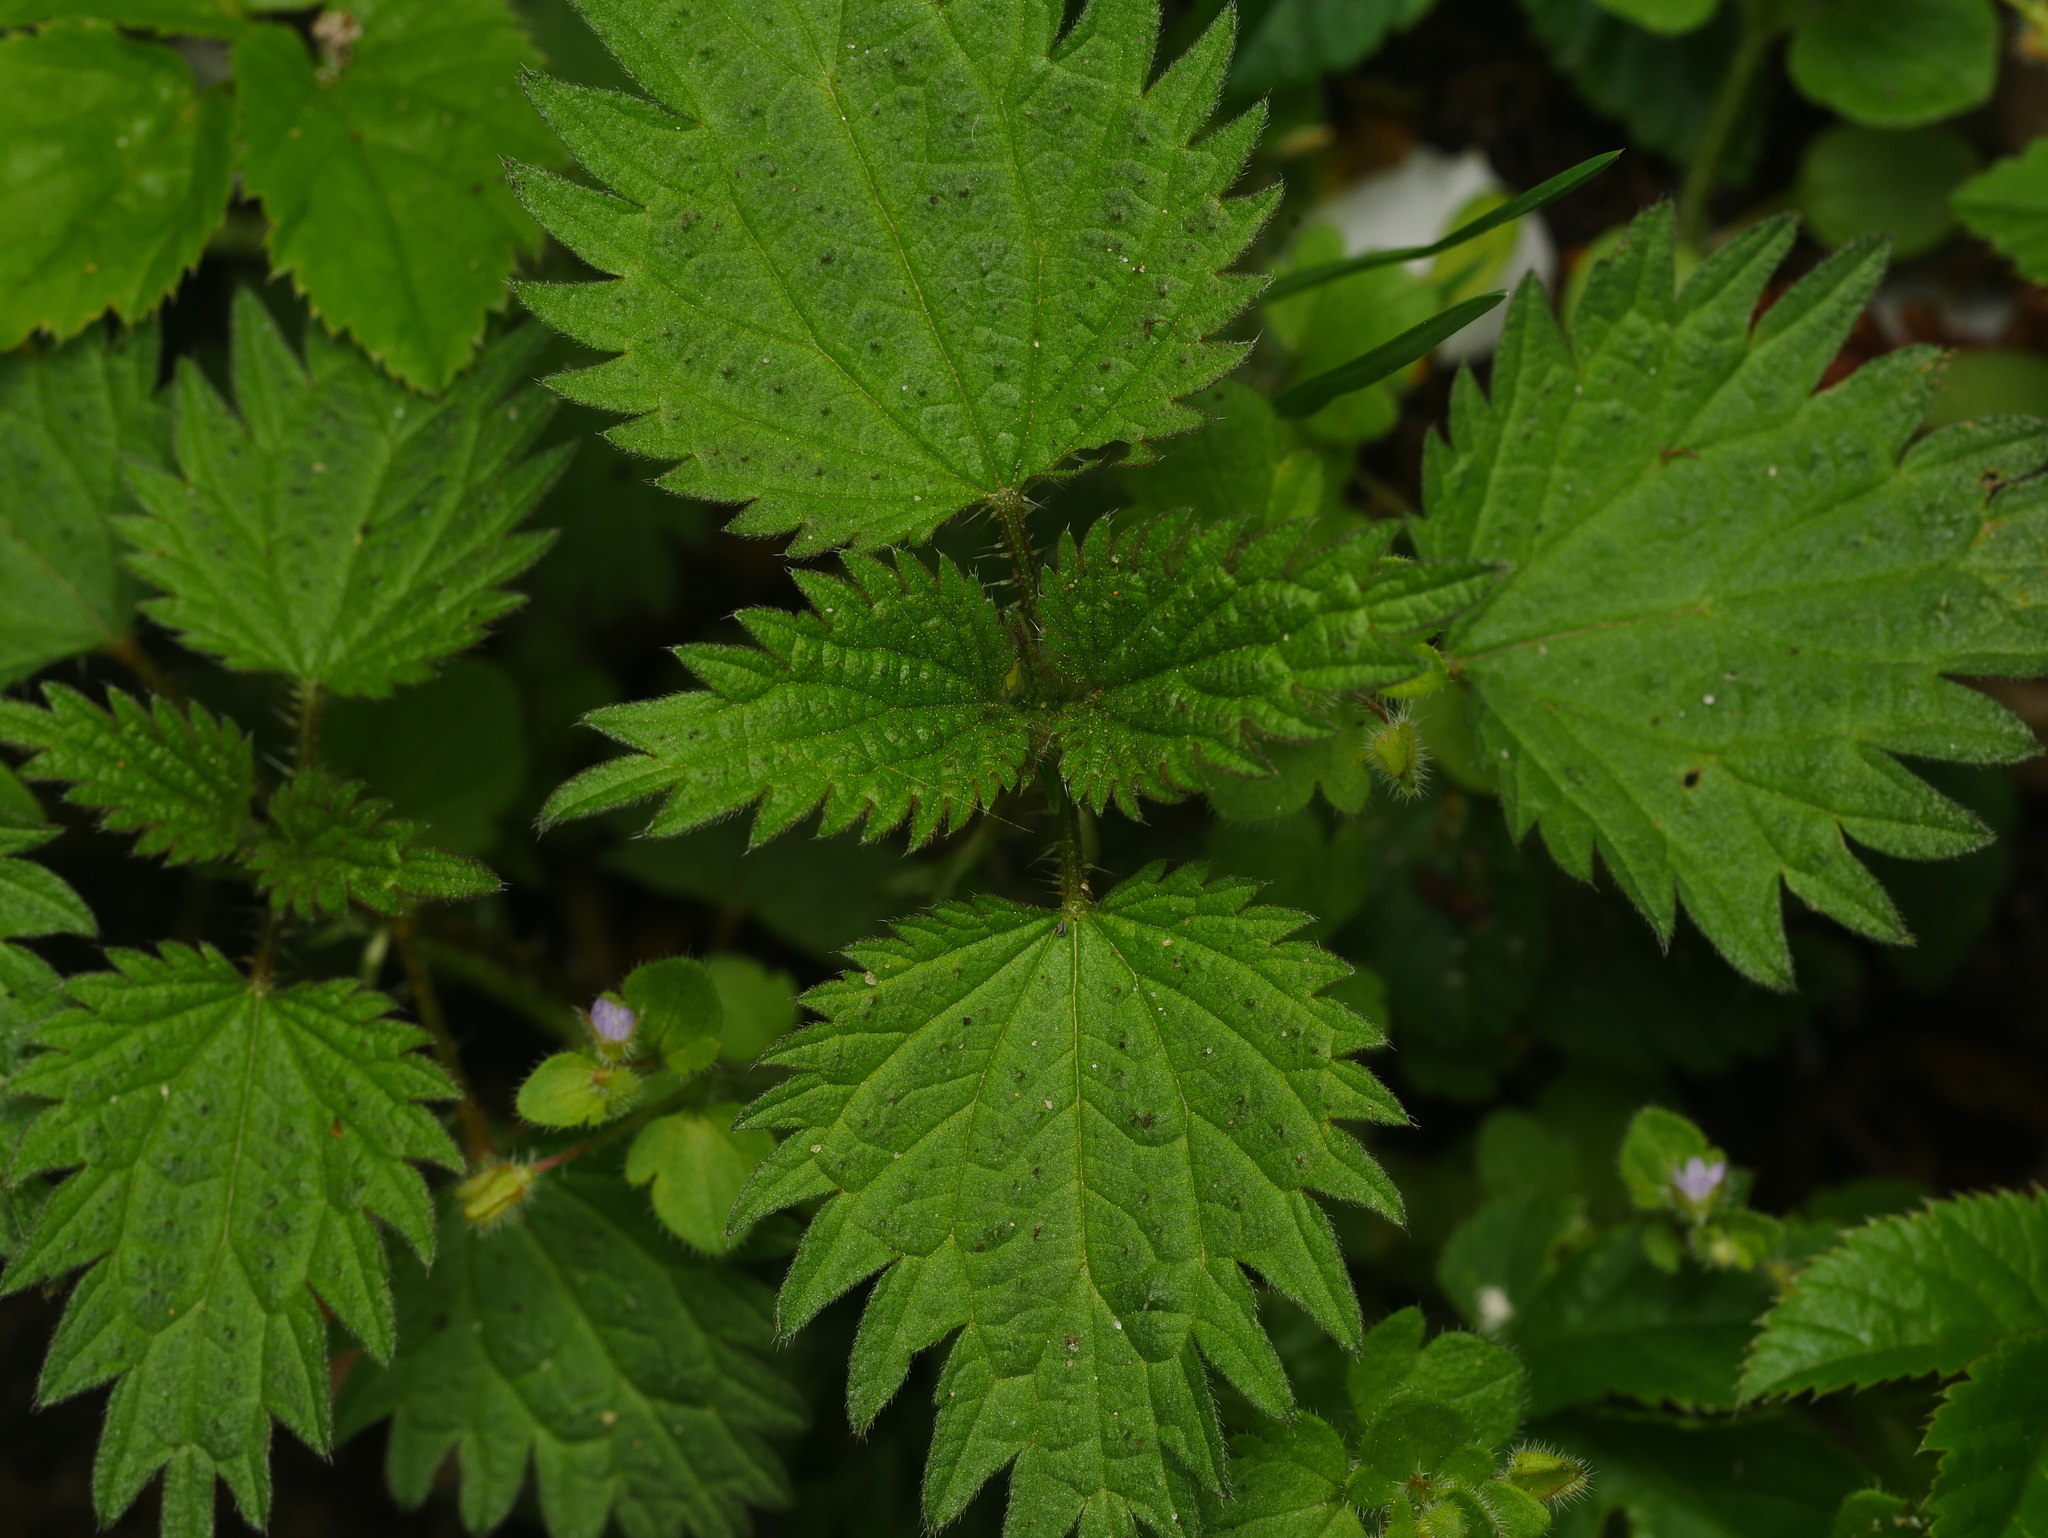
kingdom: Plantae
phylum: Tracheophyta
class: Magnoliopsida
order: Rosales
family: Urticaceae
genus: Urtica
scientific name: Urtica dioica
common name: Common nettle
